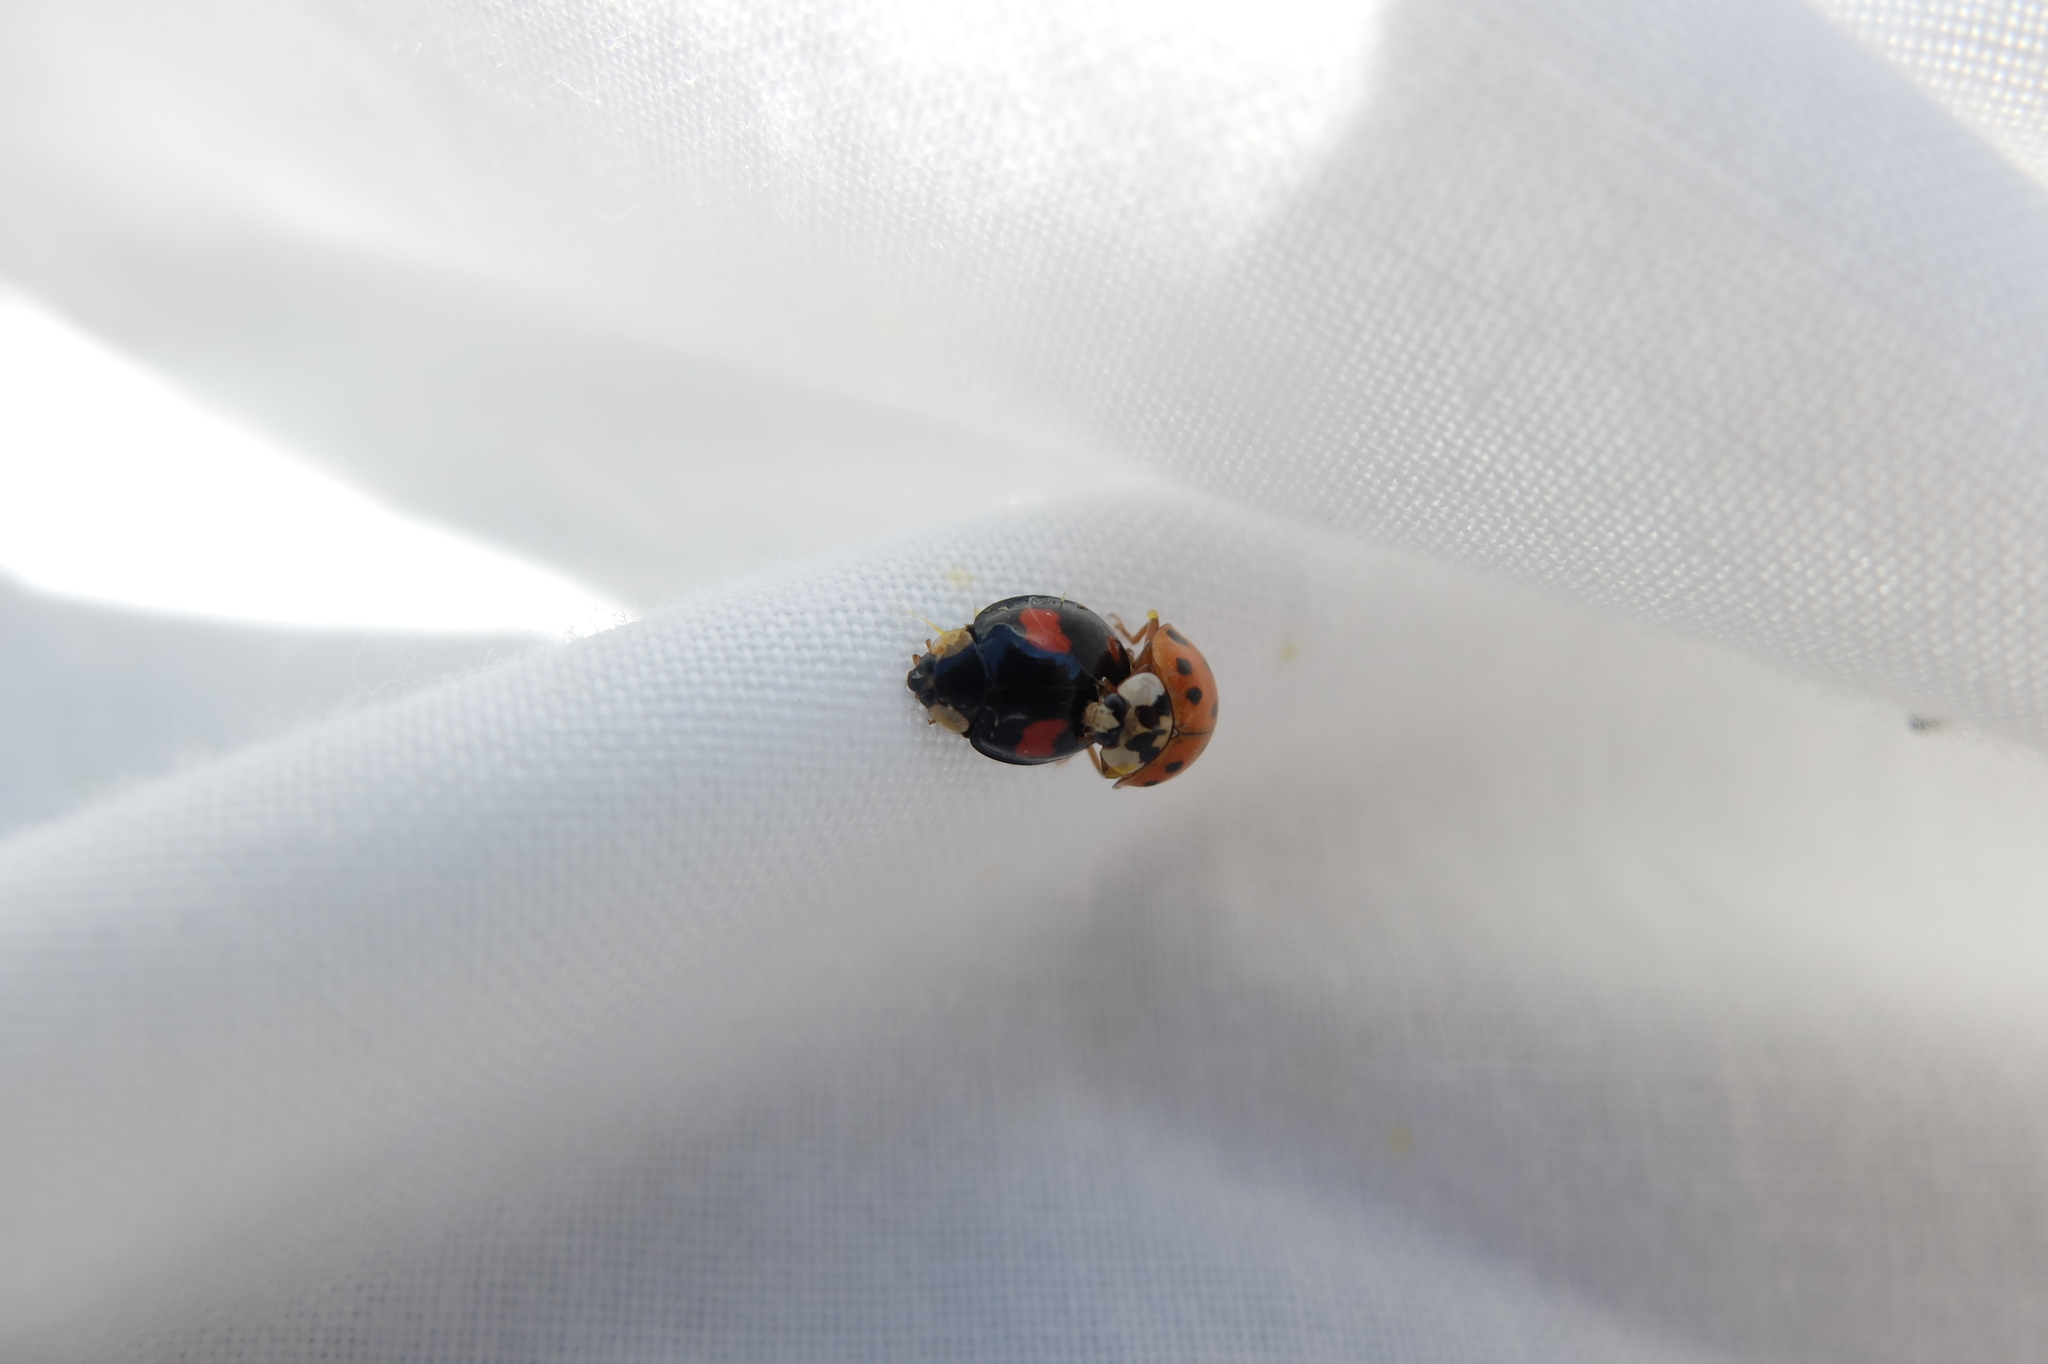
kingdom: Animalia
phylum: Arthropoda
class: Insecta
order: Coleoptera
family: Coccinellidae
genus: Harmonia
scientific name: Harmonia axyridis
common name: Harlequin ladybird
